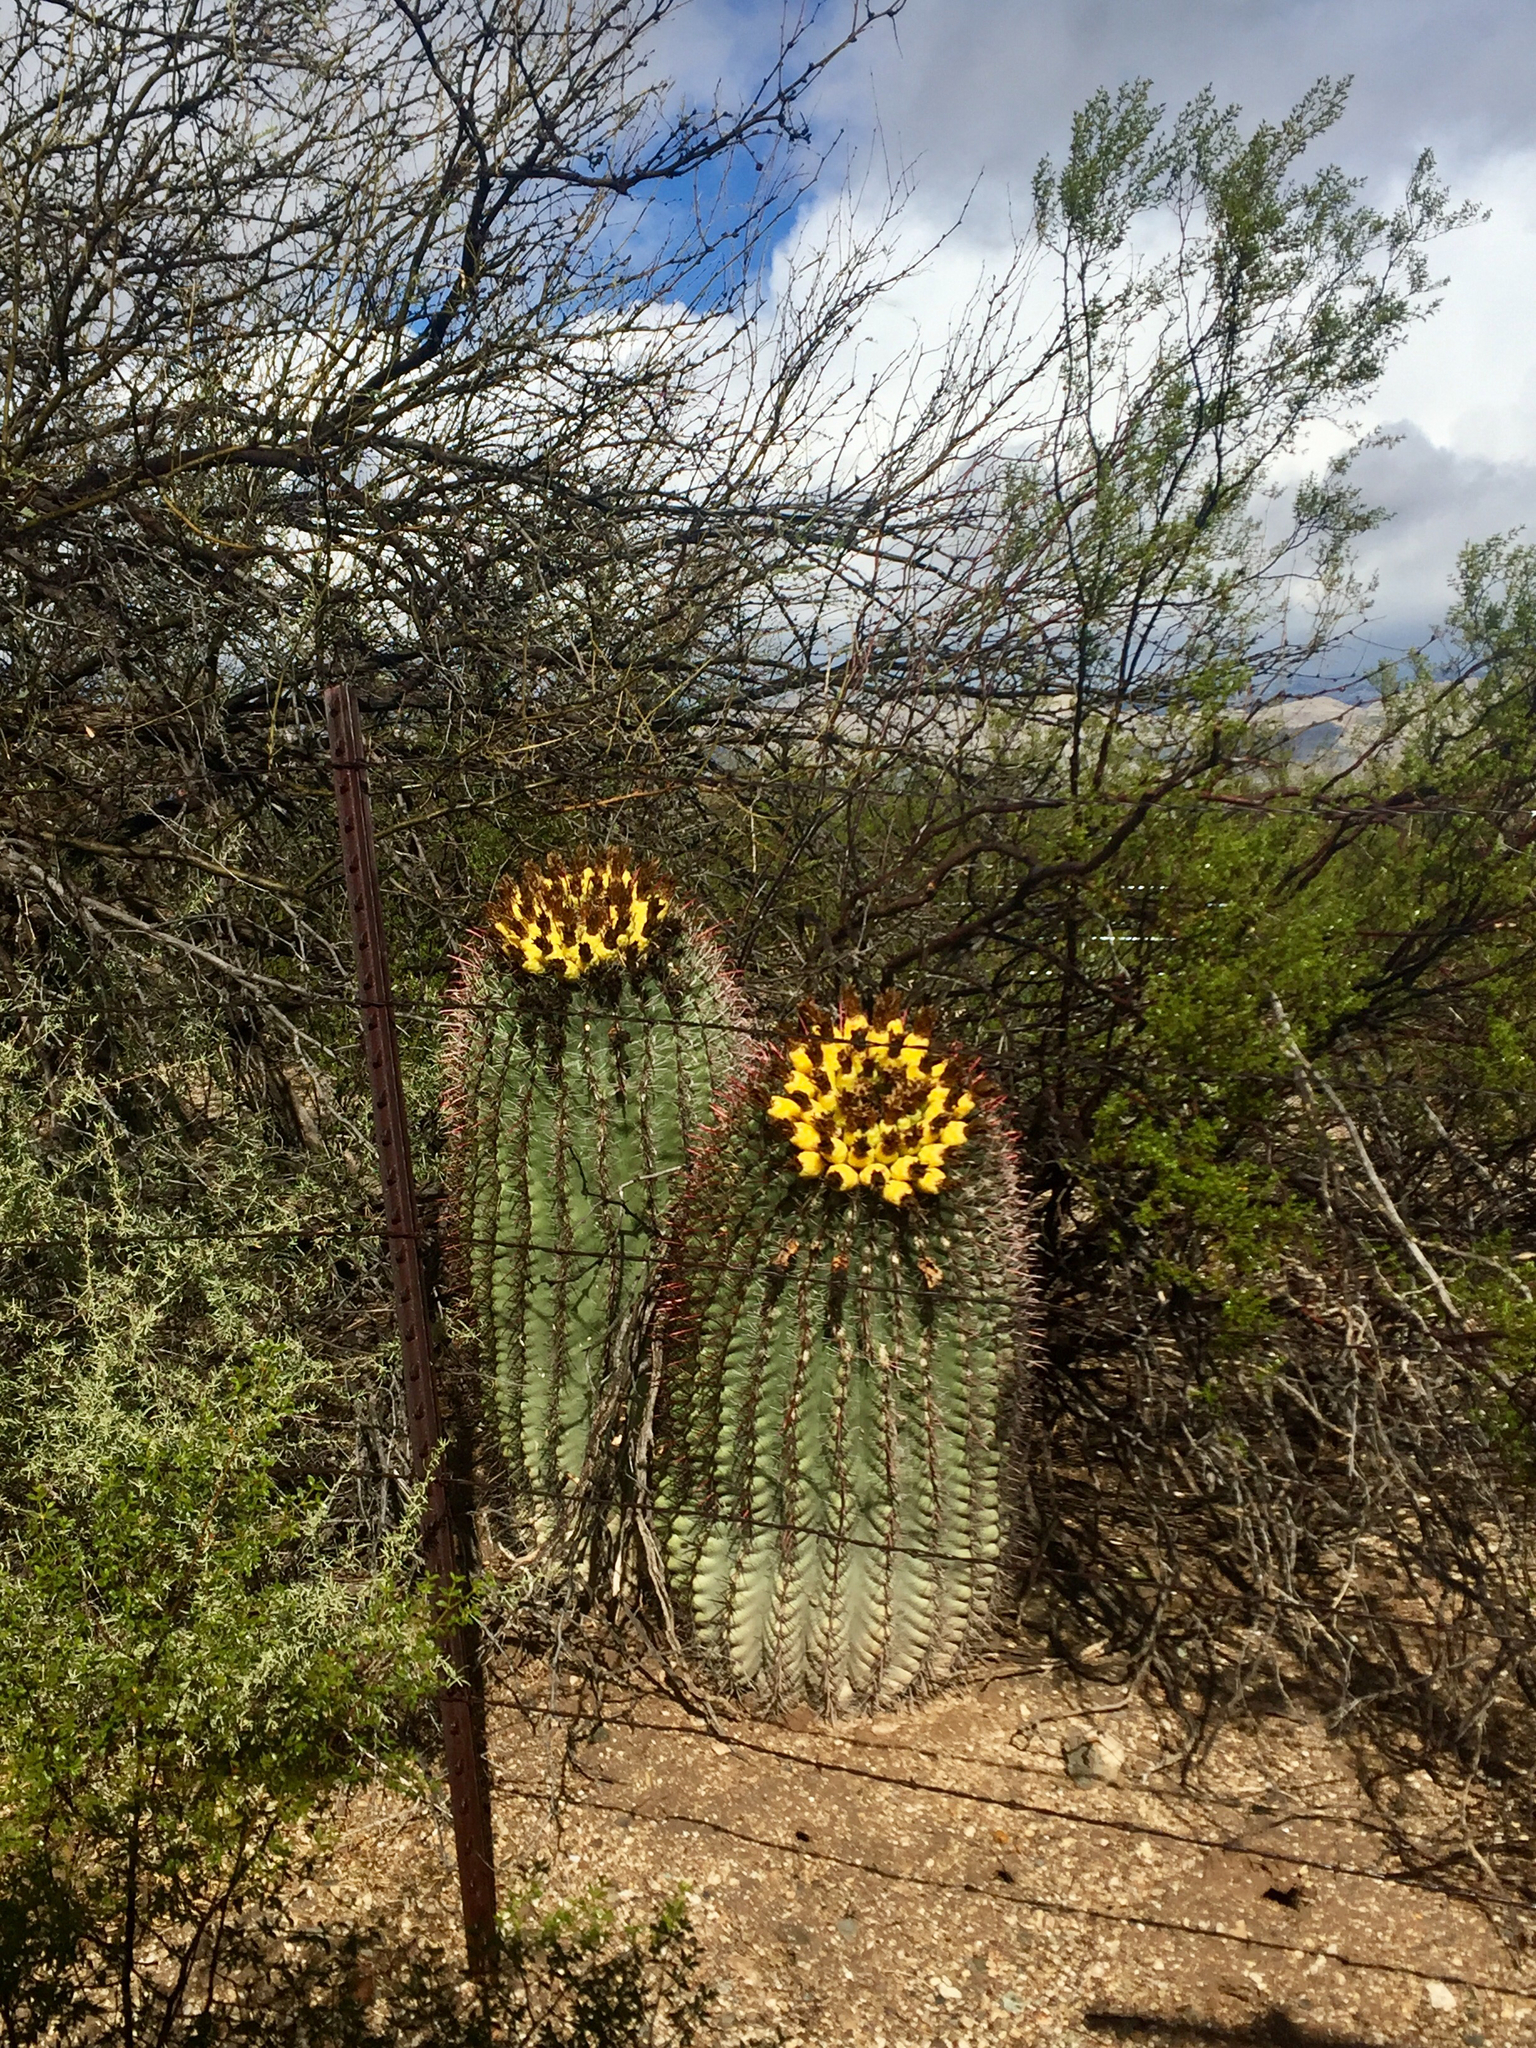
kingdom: Plantae
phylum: Tracheophyta
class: Magnoliopsida
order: Caryophyllales
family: Cactaceae
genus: Ferocactus
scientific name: Ferocactus wislizeni
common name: Candy barrel cactus
